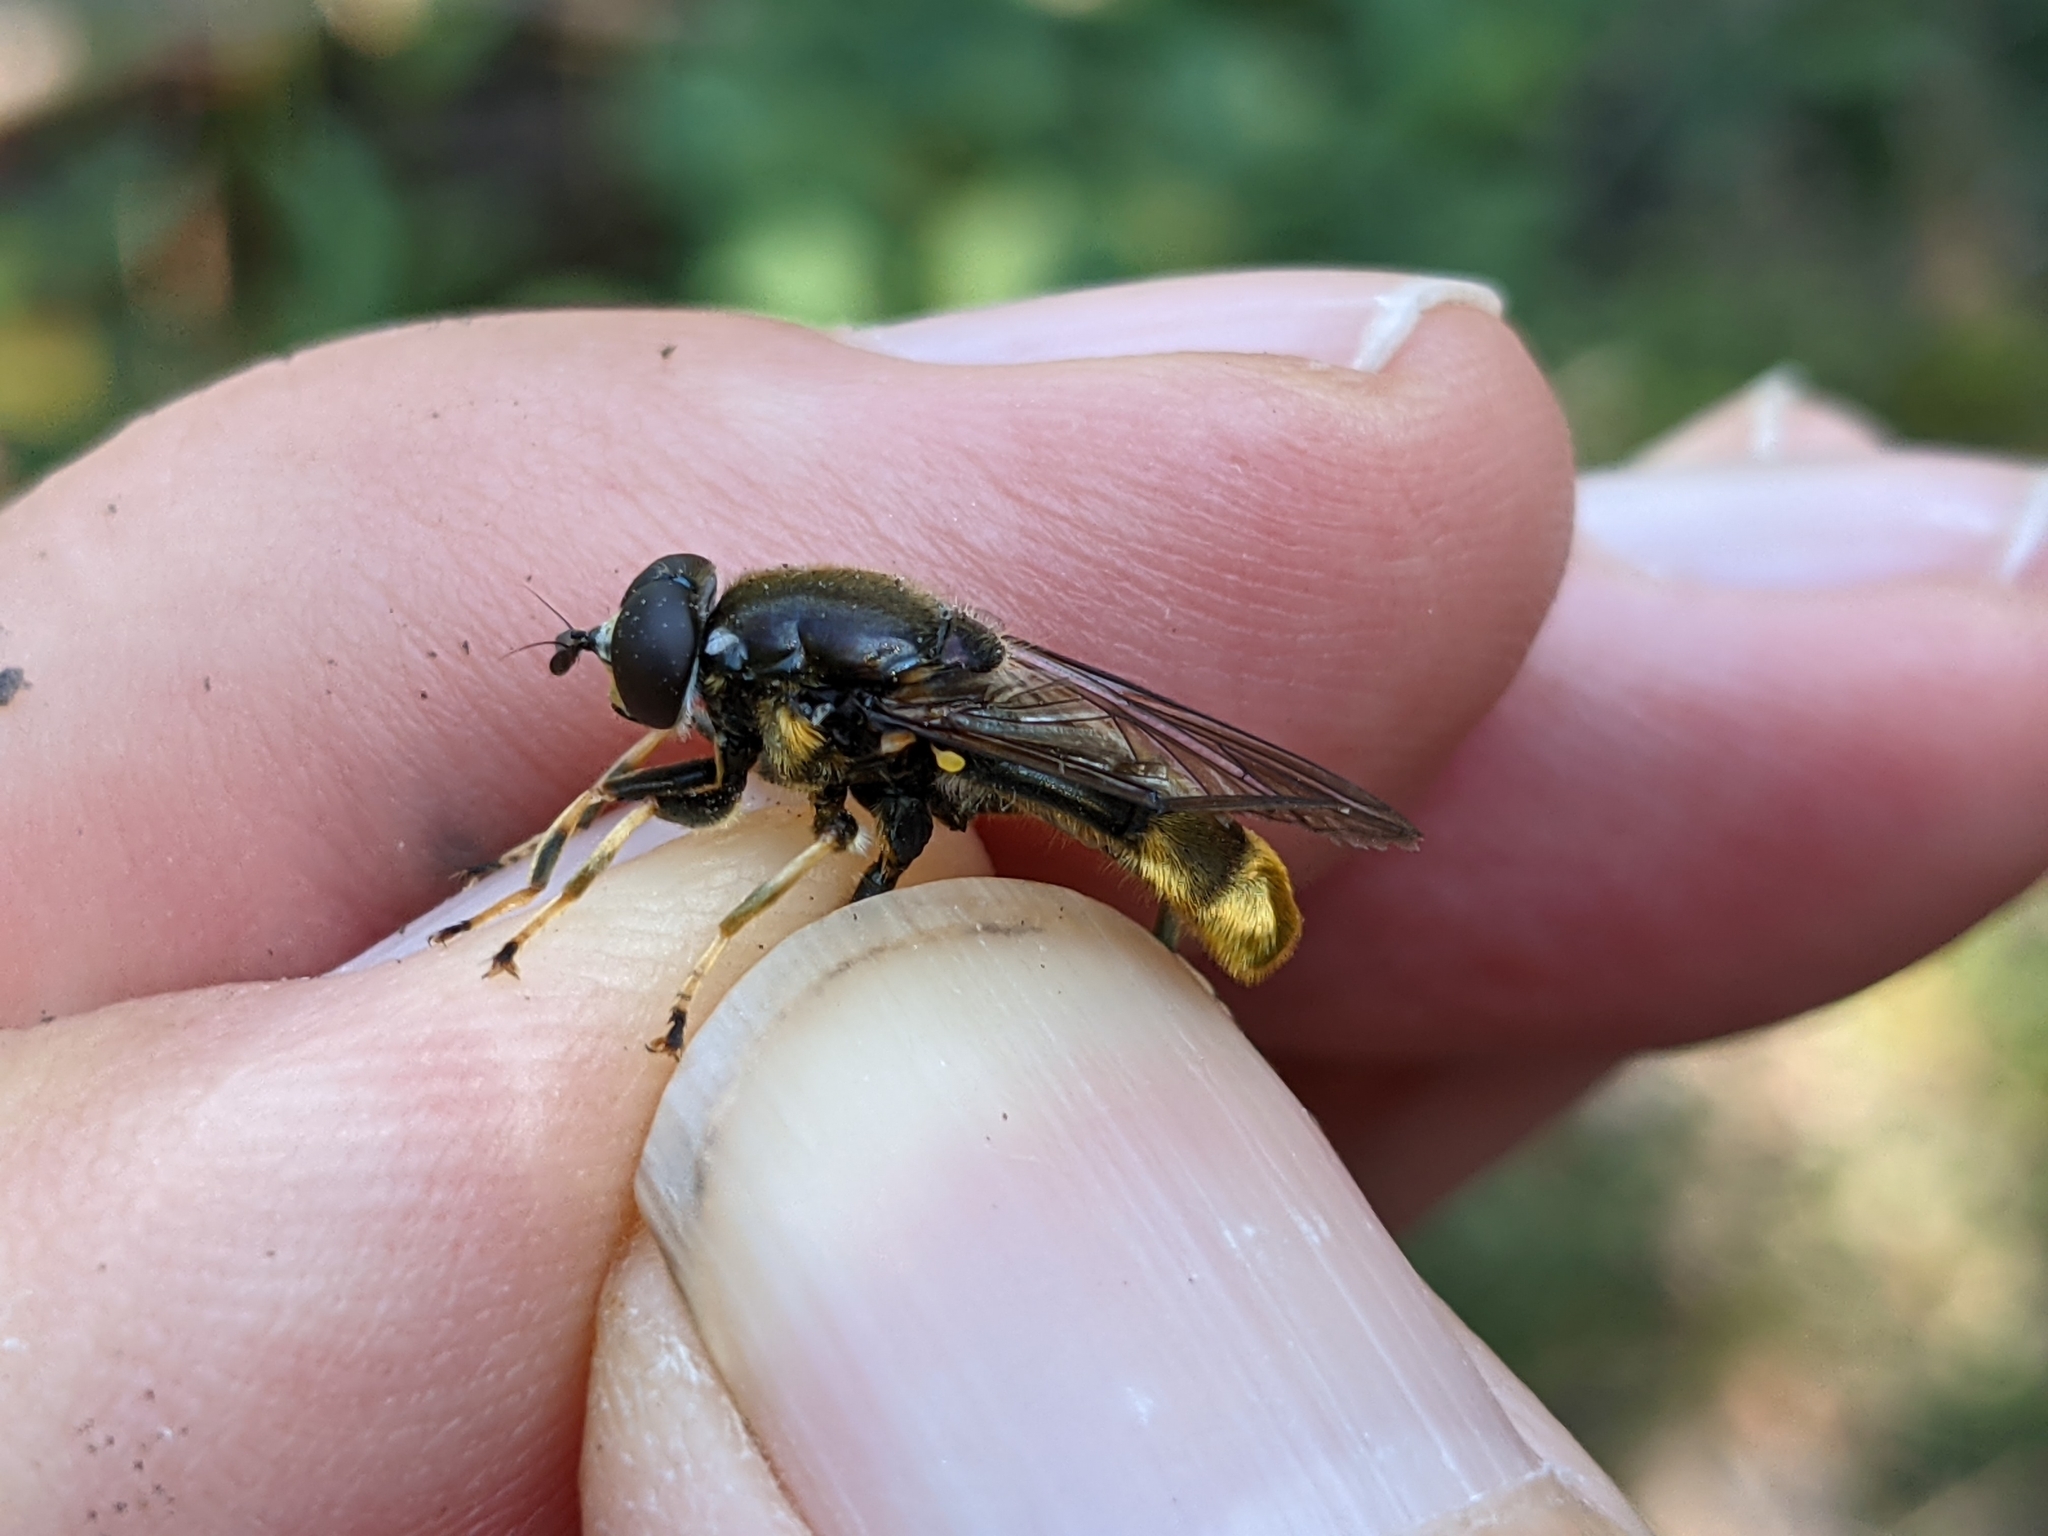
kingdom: Animalia
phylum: Arthropoda
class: Insecta
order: Diptera
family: Syrphidae
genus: Xylota
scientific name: Xylota sylvarum
